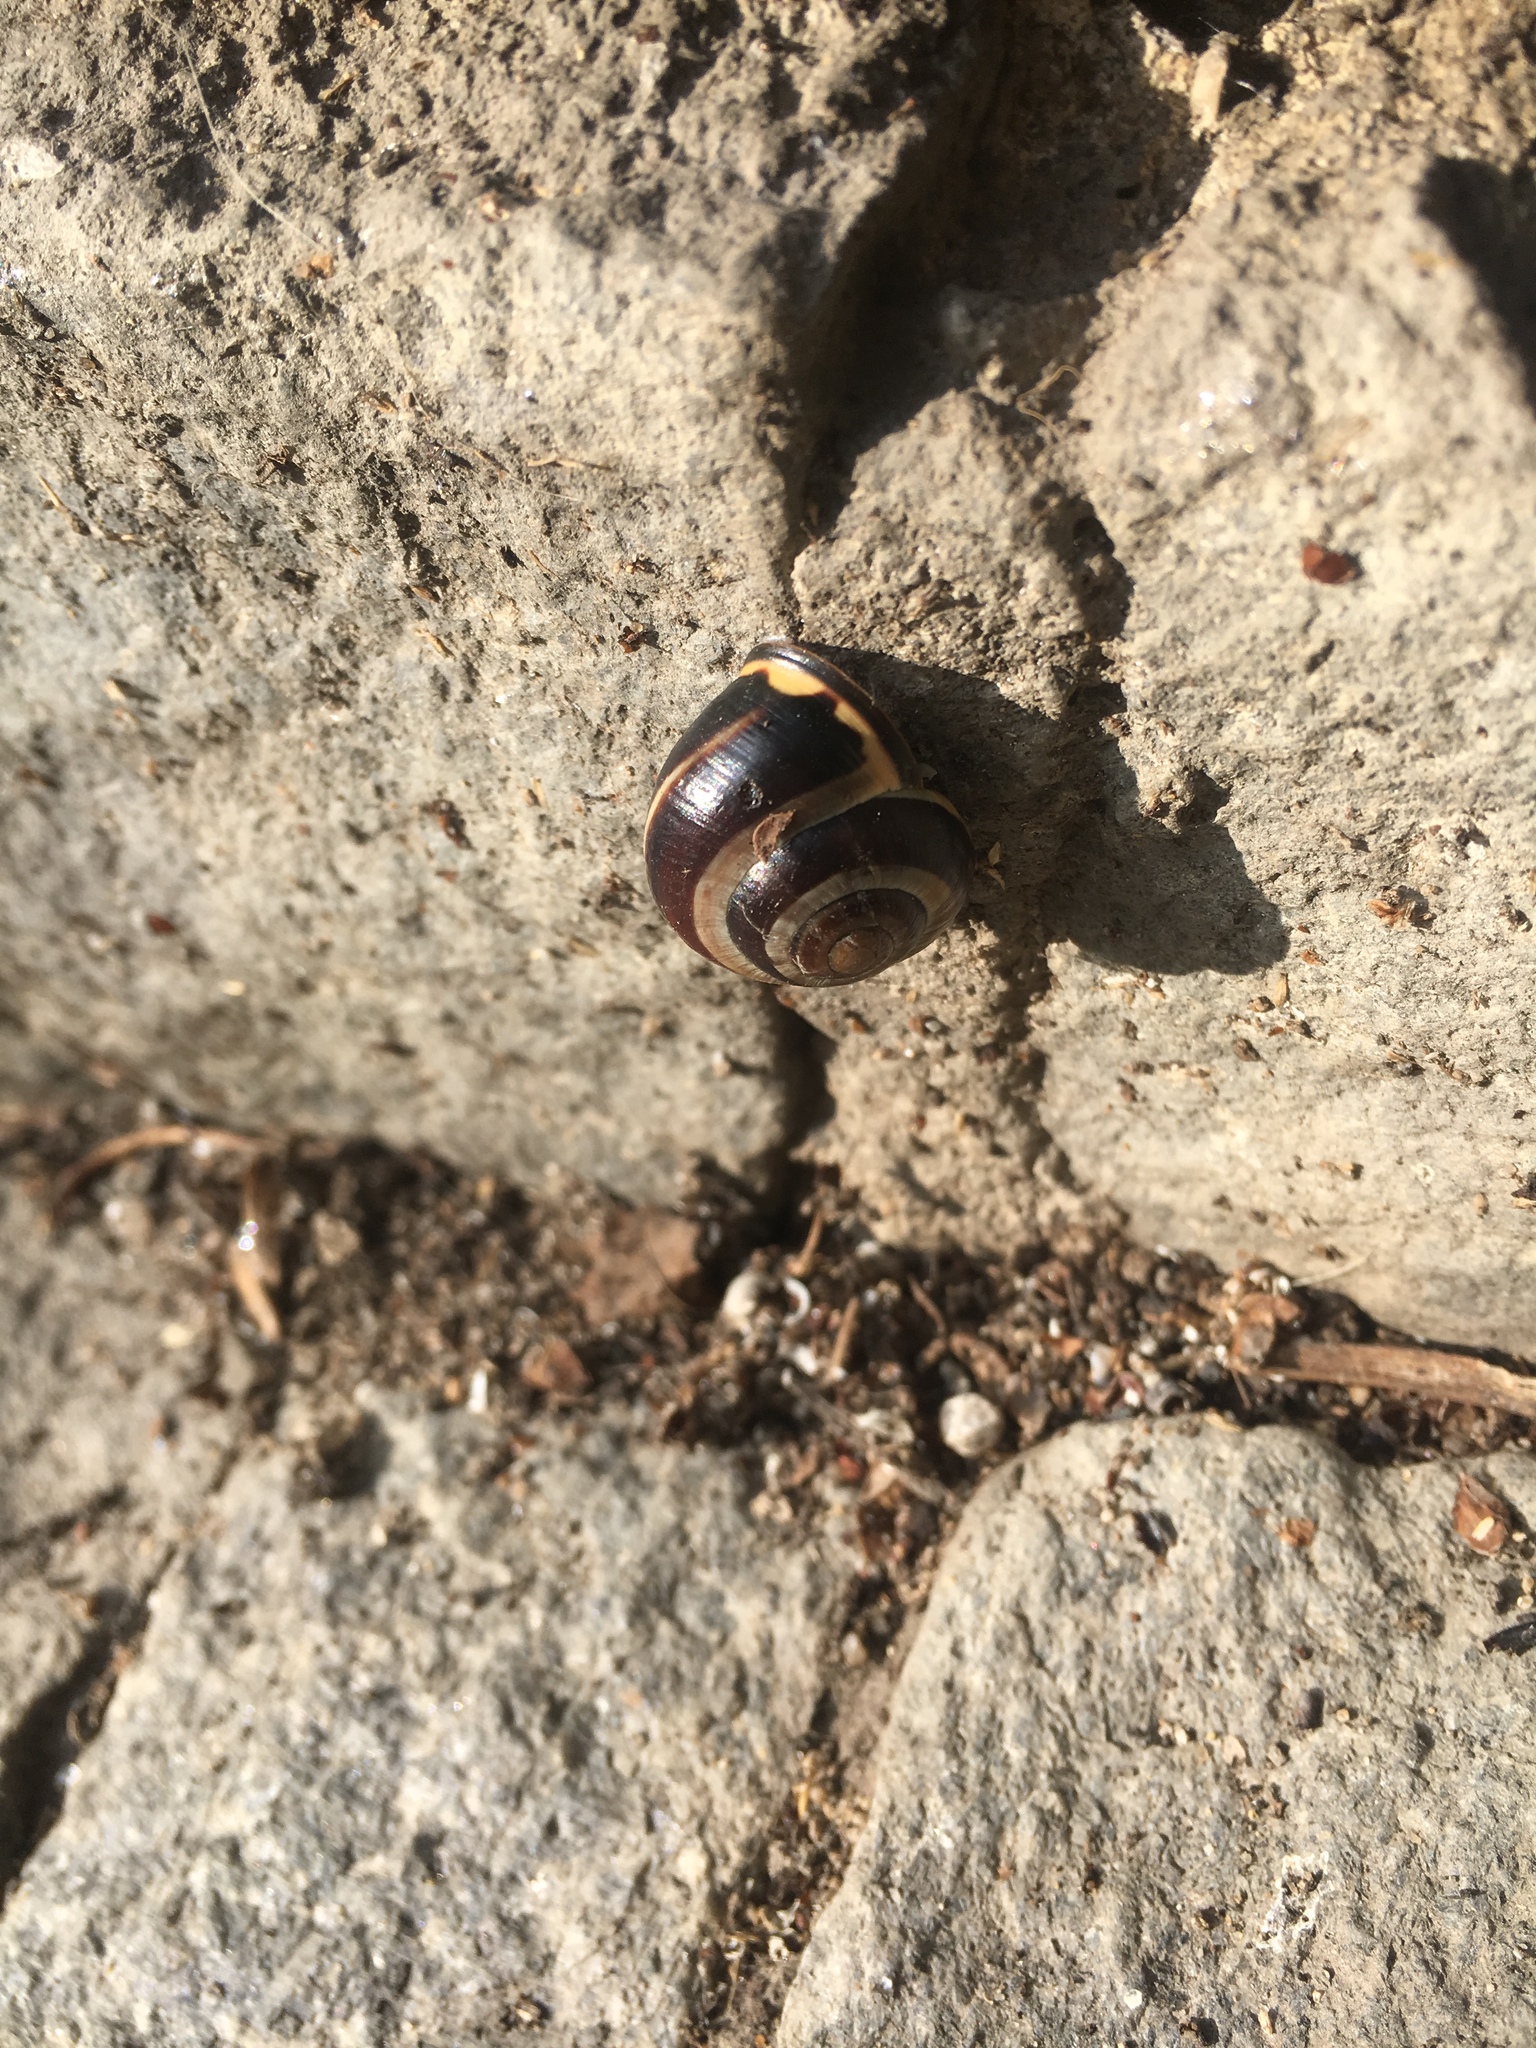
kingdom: Animalia
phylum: Mollusca
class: Gastropoda
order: Stylommatophora
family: Helicidae
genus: Cepaea
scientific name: Cepaea nemoralis
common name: Grovesnail
